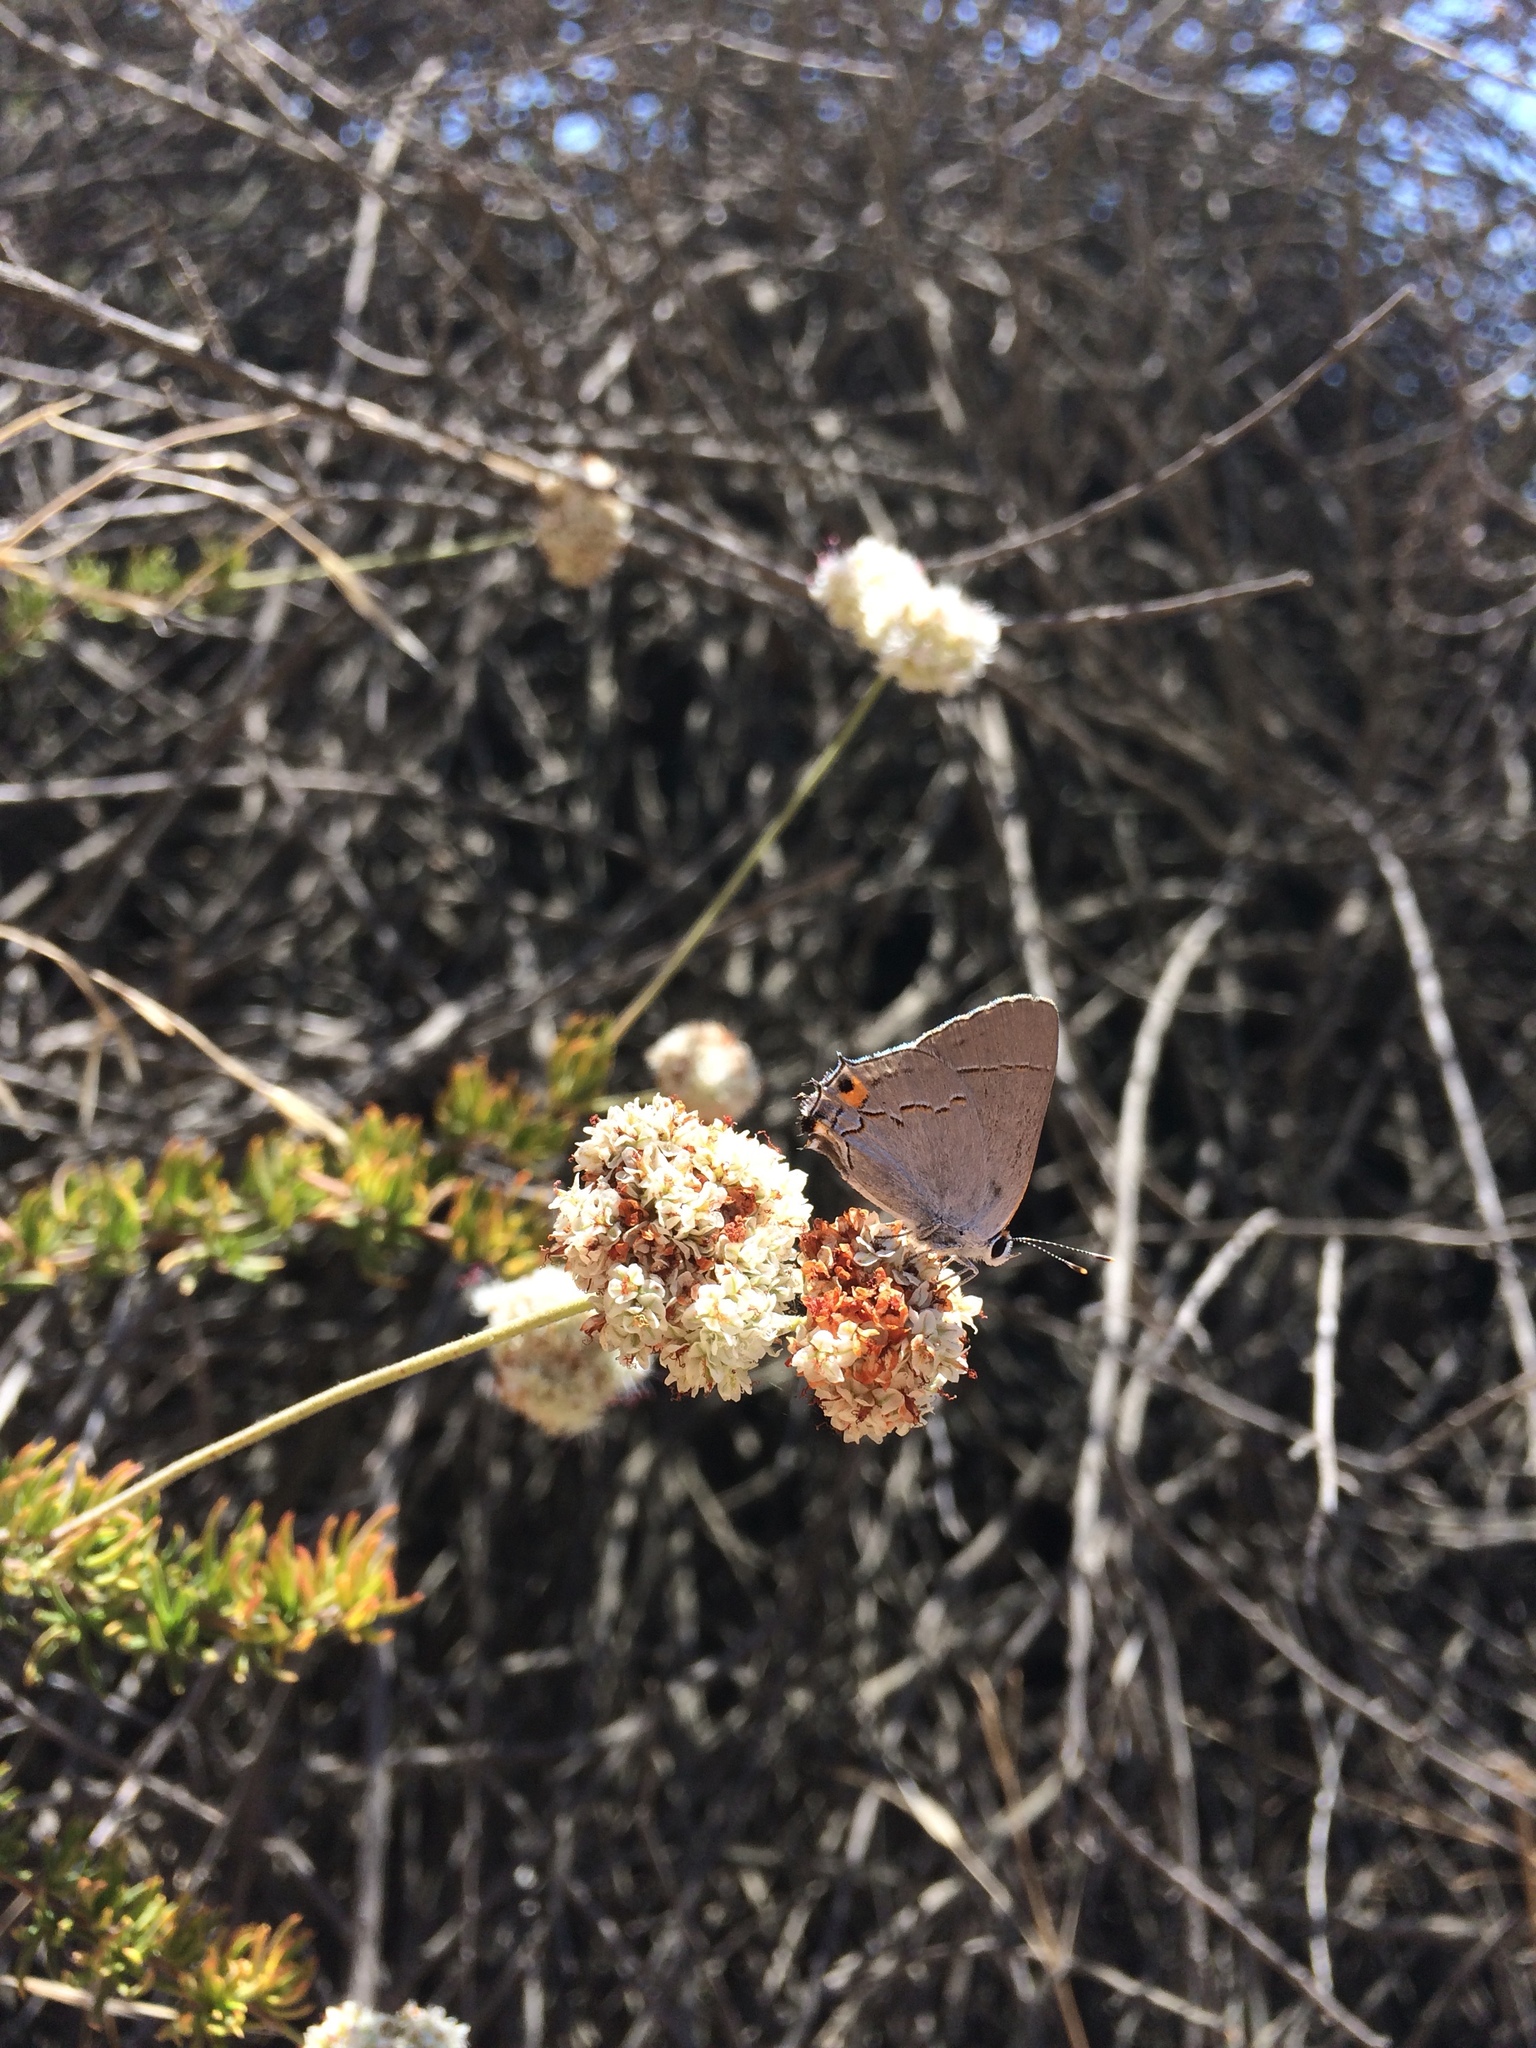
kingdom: Animalia
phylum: Arthropoda
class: Insecta
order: Lepidoptera
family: Lycaenidae
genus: Strymon
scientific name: Strymon melinus
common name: Gray hairstreak
